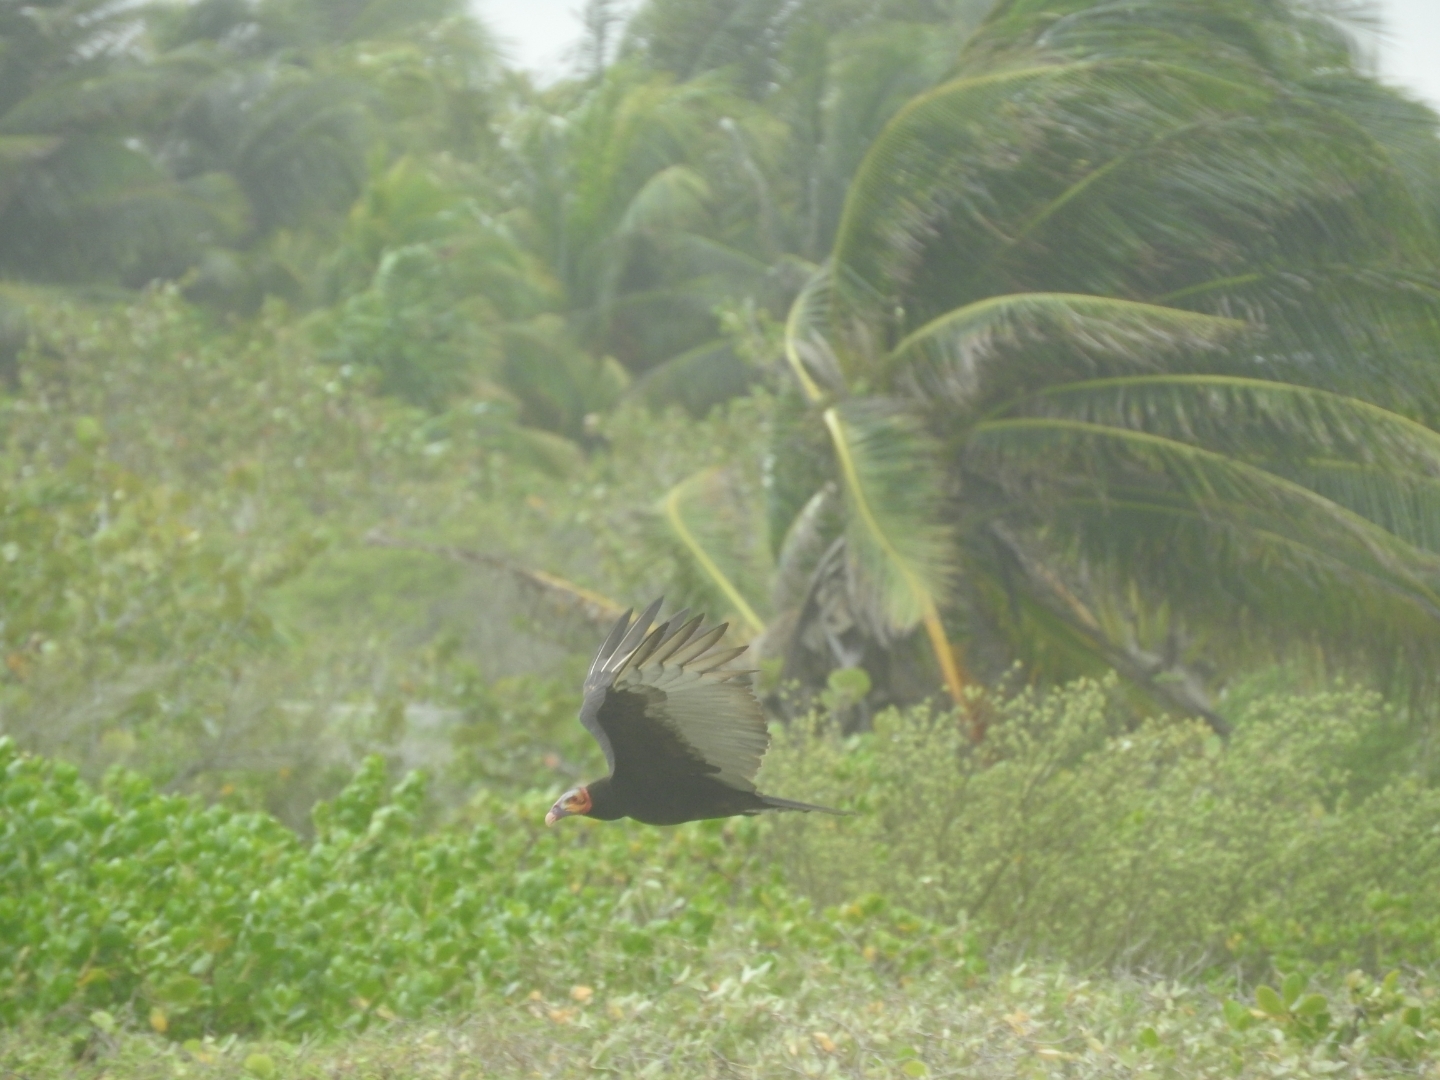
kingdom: Animalia
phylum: Chordata
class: Aves
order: Accipitriformes
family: Cathartidae
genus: Cathartes
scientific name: Cathartes burrovianus
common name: Lesser yellow-headed vulture
